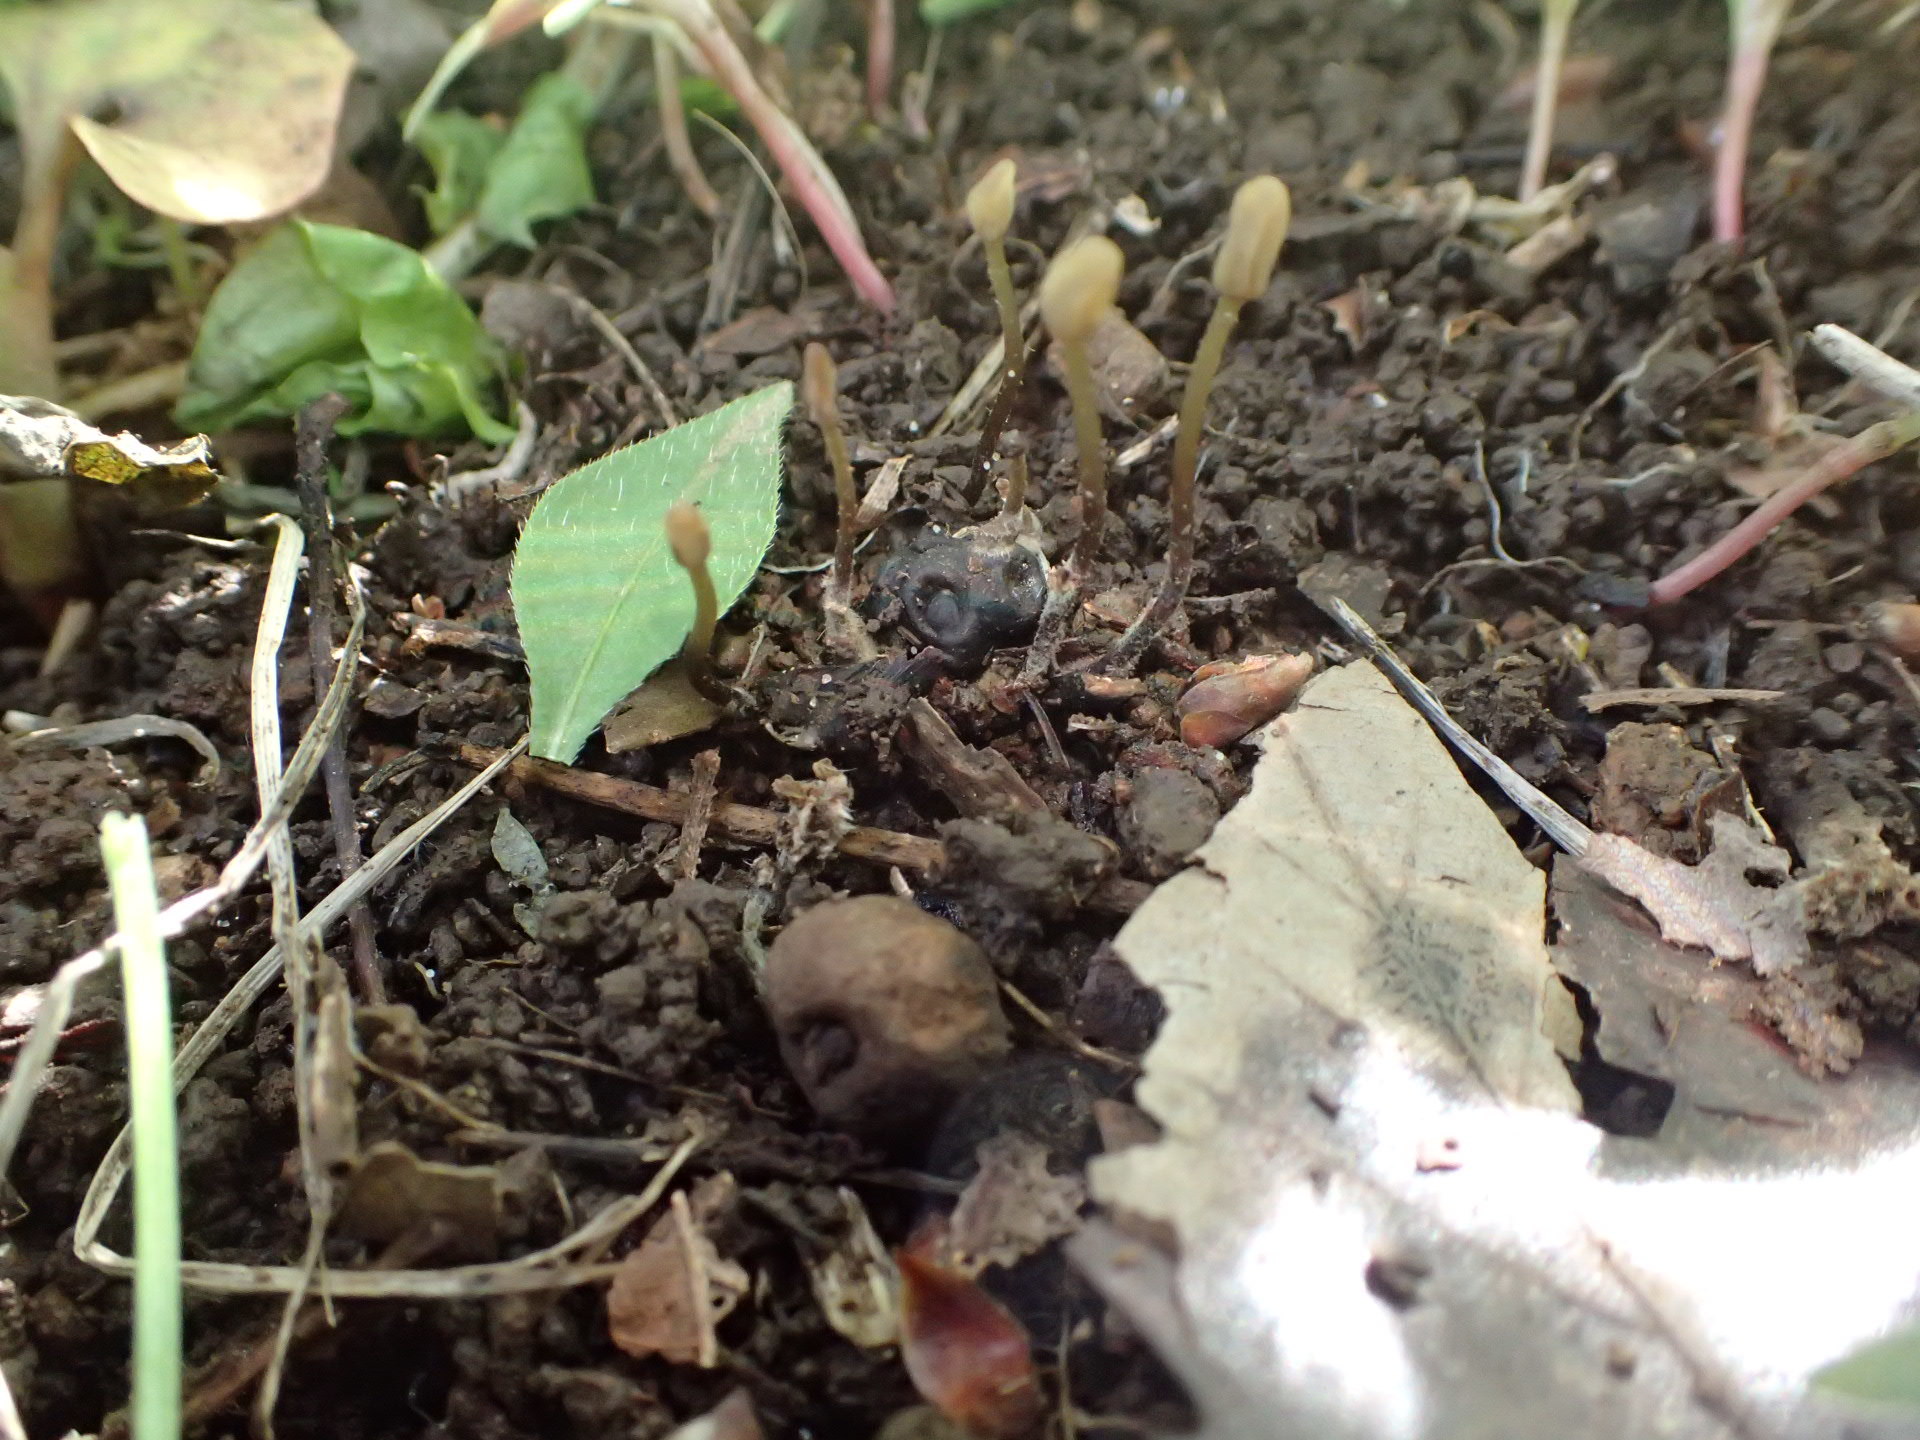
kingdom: Fungi
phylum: Ascomycota
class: Leotiomycetes
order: Helotiales
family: Sclerotiniaceae
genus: Scleromitrula
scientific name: Scleromitrula shiraiana
